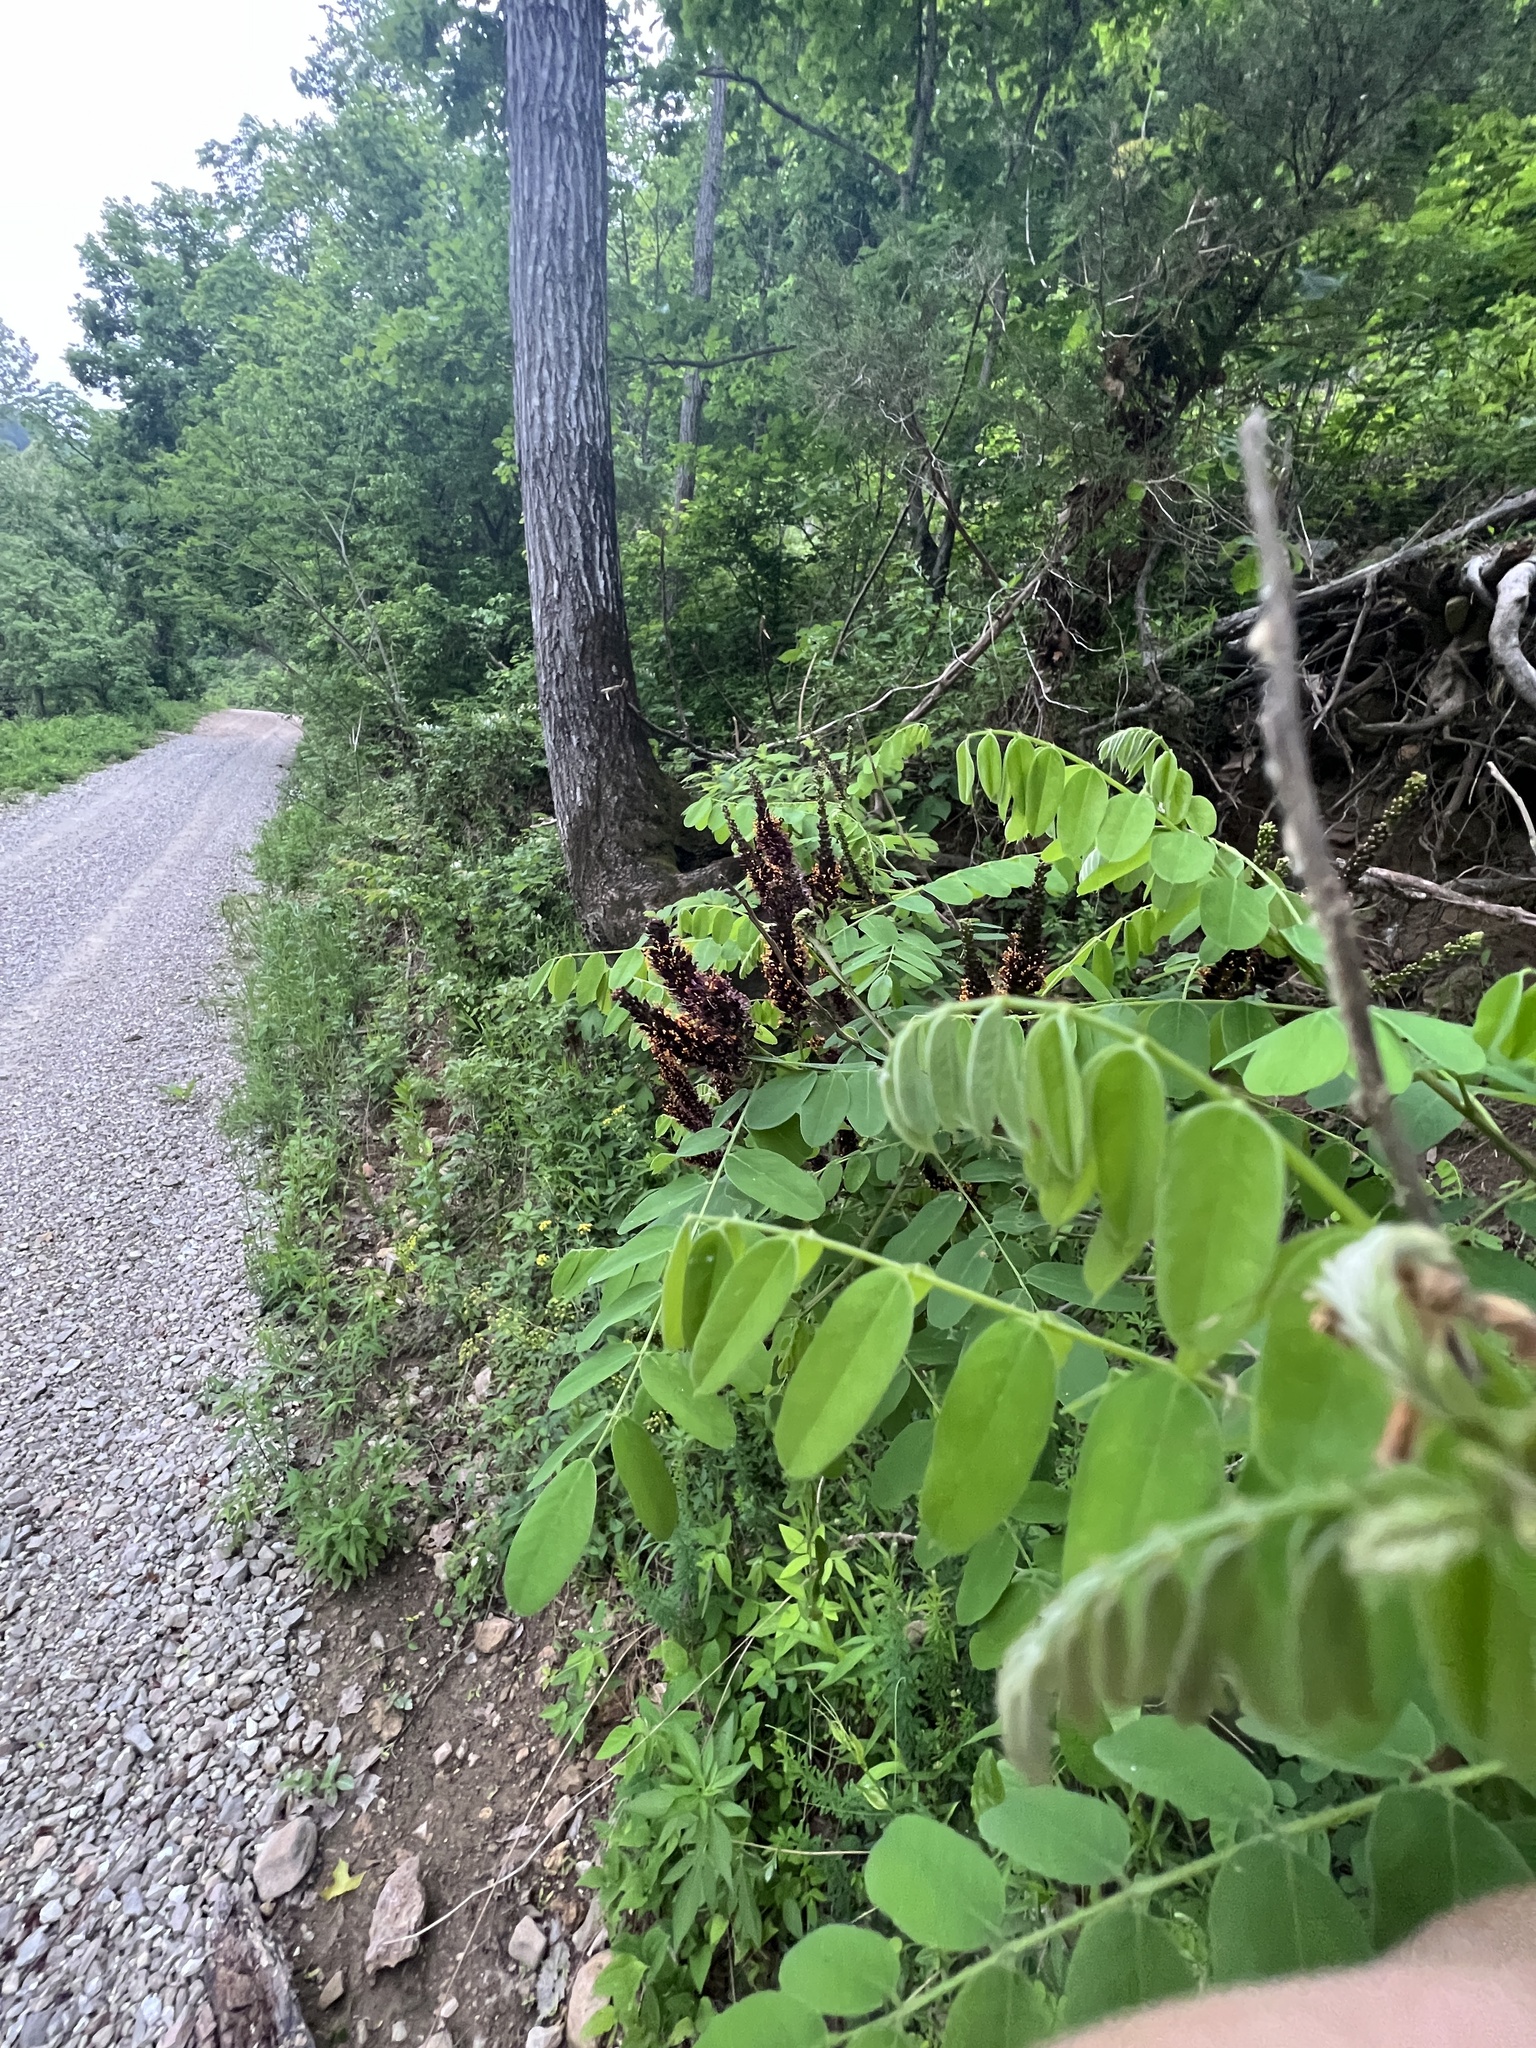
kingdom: Plantae
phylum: Tracheophyta
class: Magnoliopsida
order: Fabales
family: Fabaceae
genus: Amorpha
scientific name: Amorpha fruticosa
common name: False indigo
